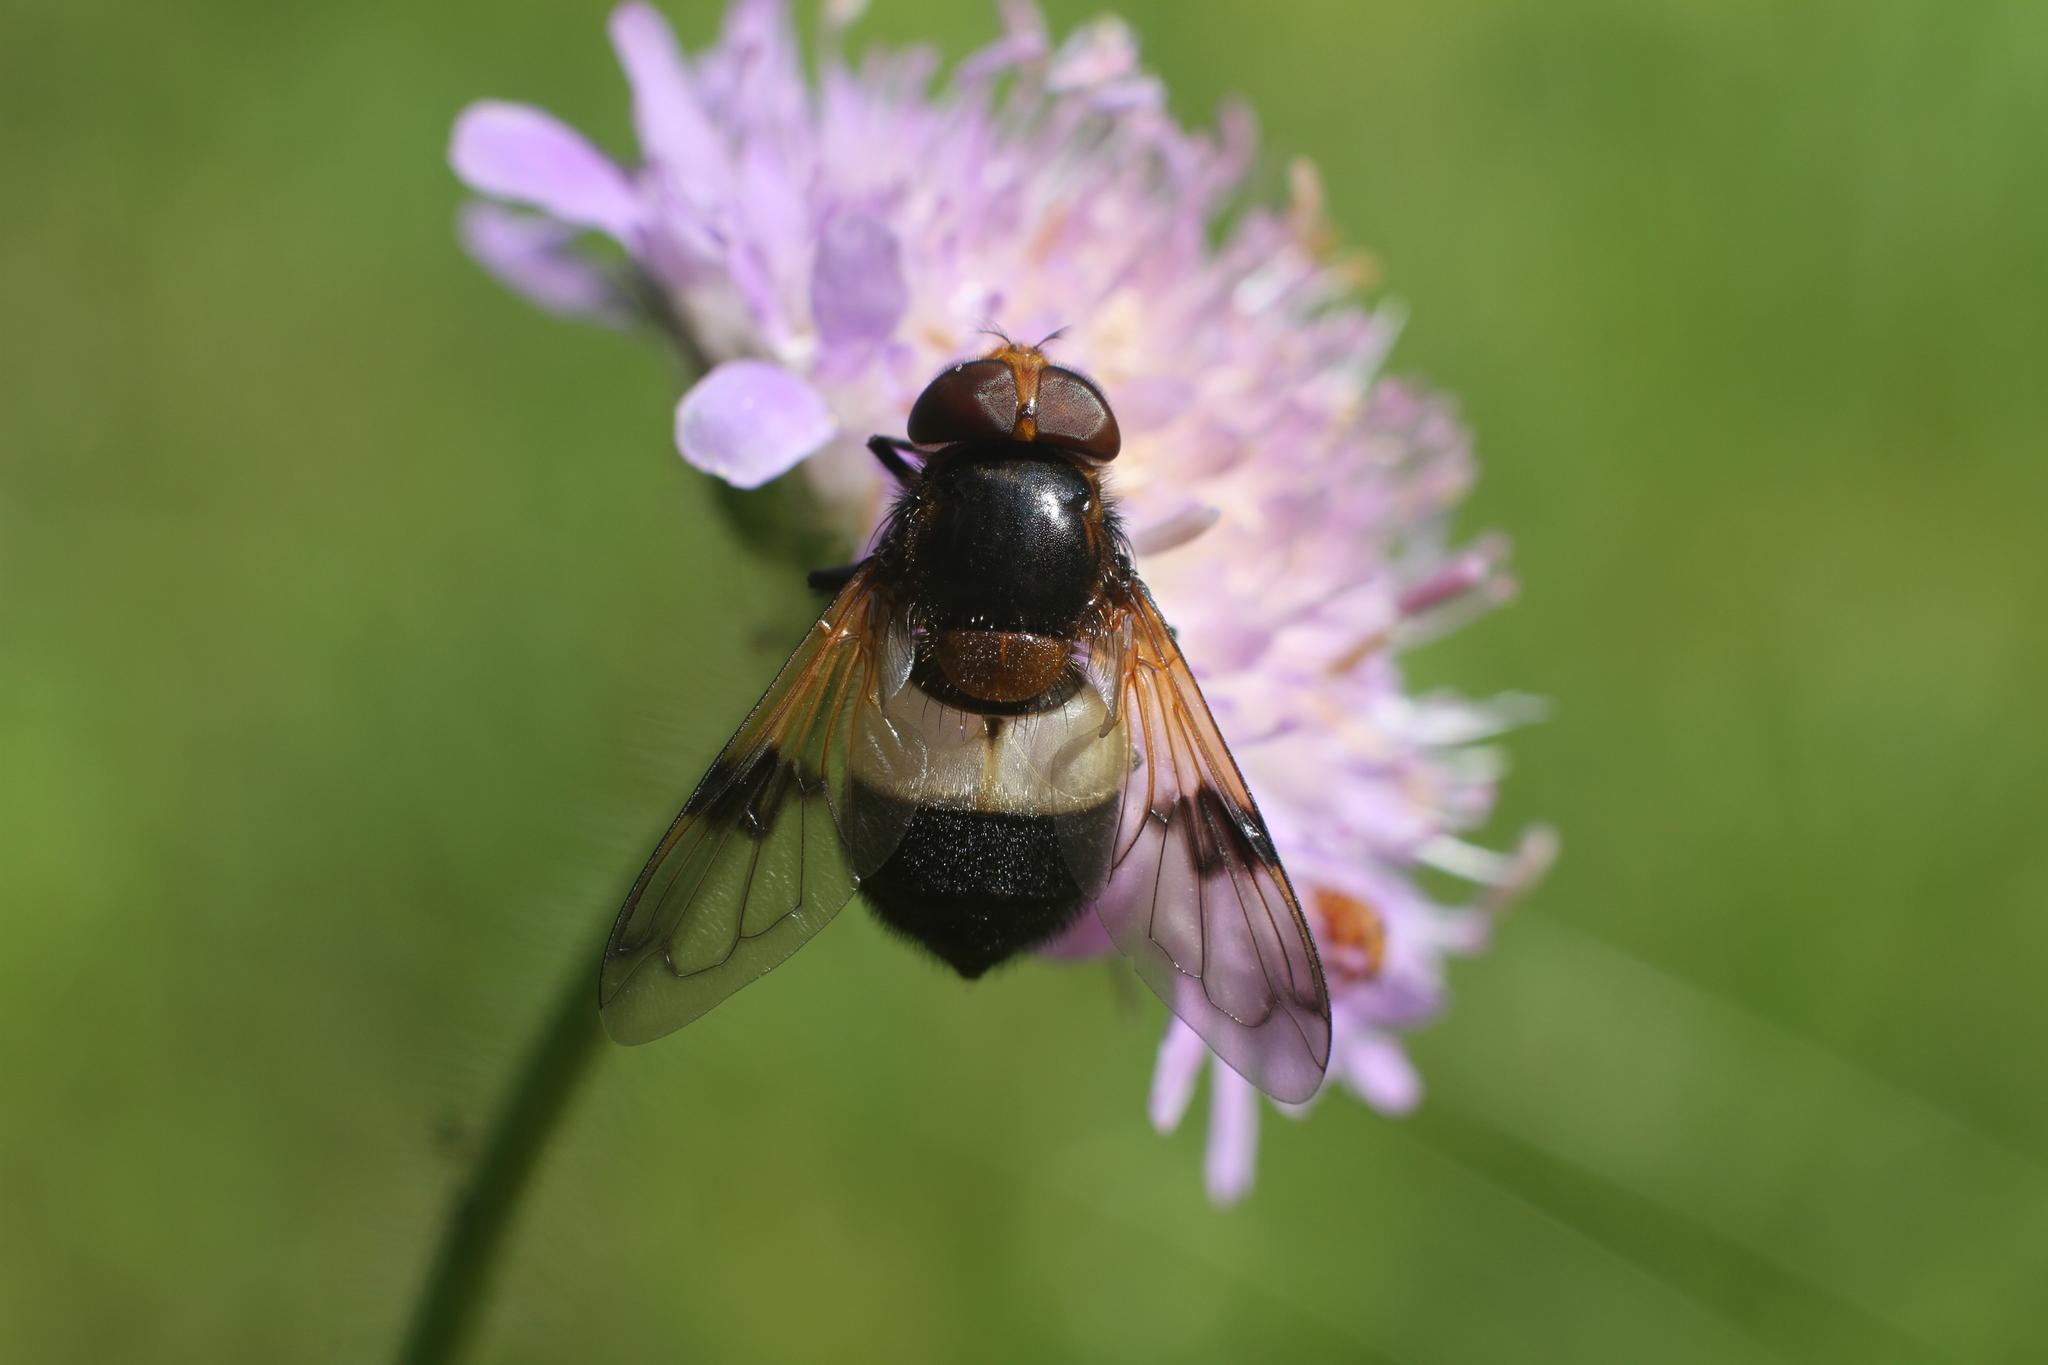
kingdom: Animalia
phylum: Arthropoda
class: Insecta
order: Diptera
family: Syrphidae
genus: Volucella
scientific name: Volucella pellucens
